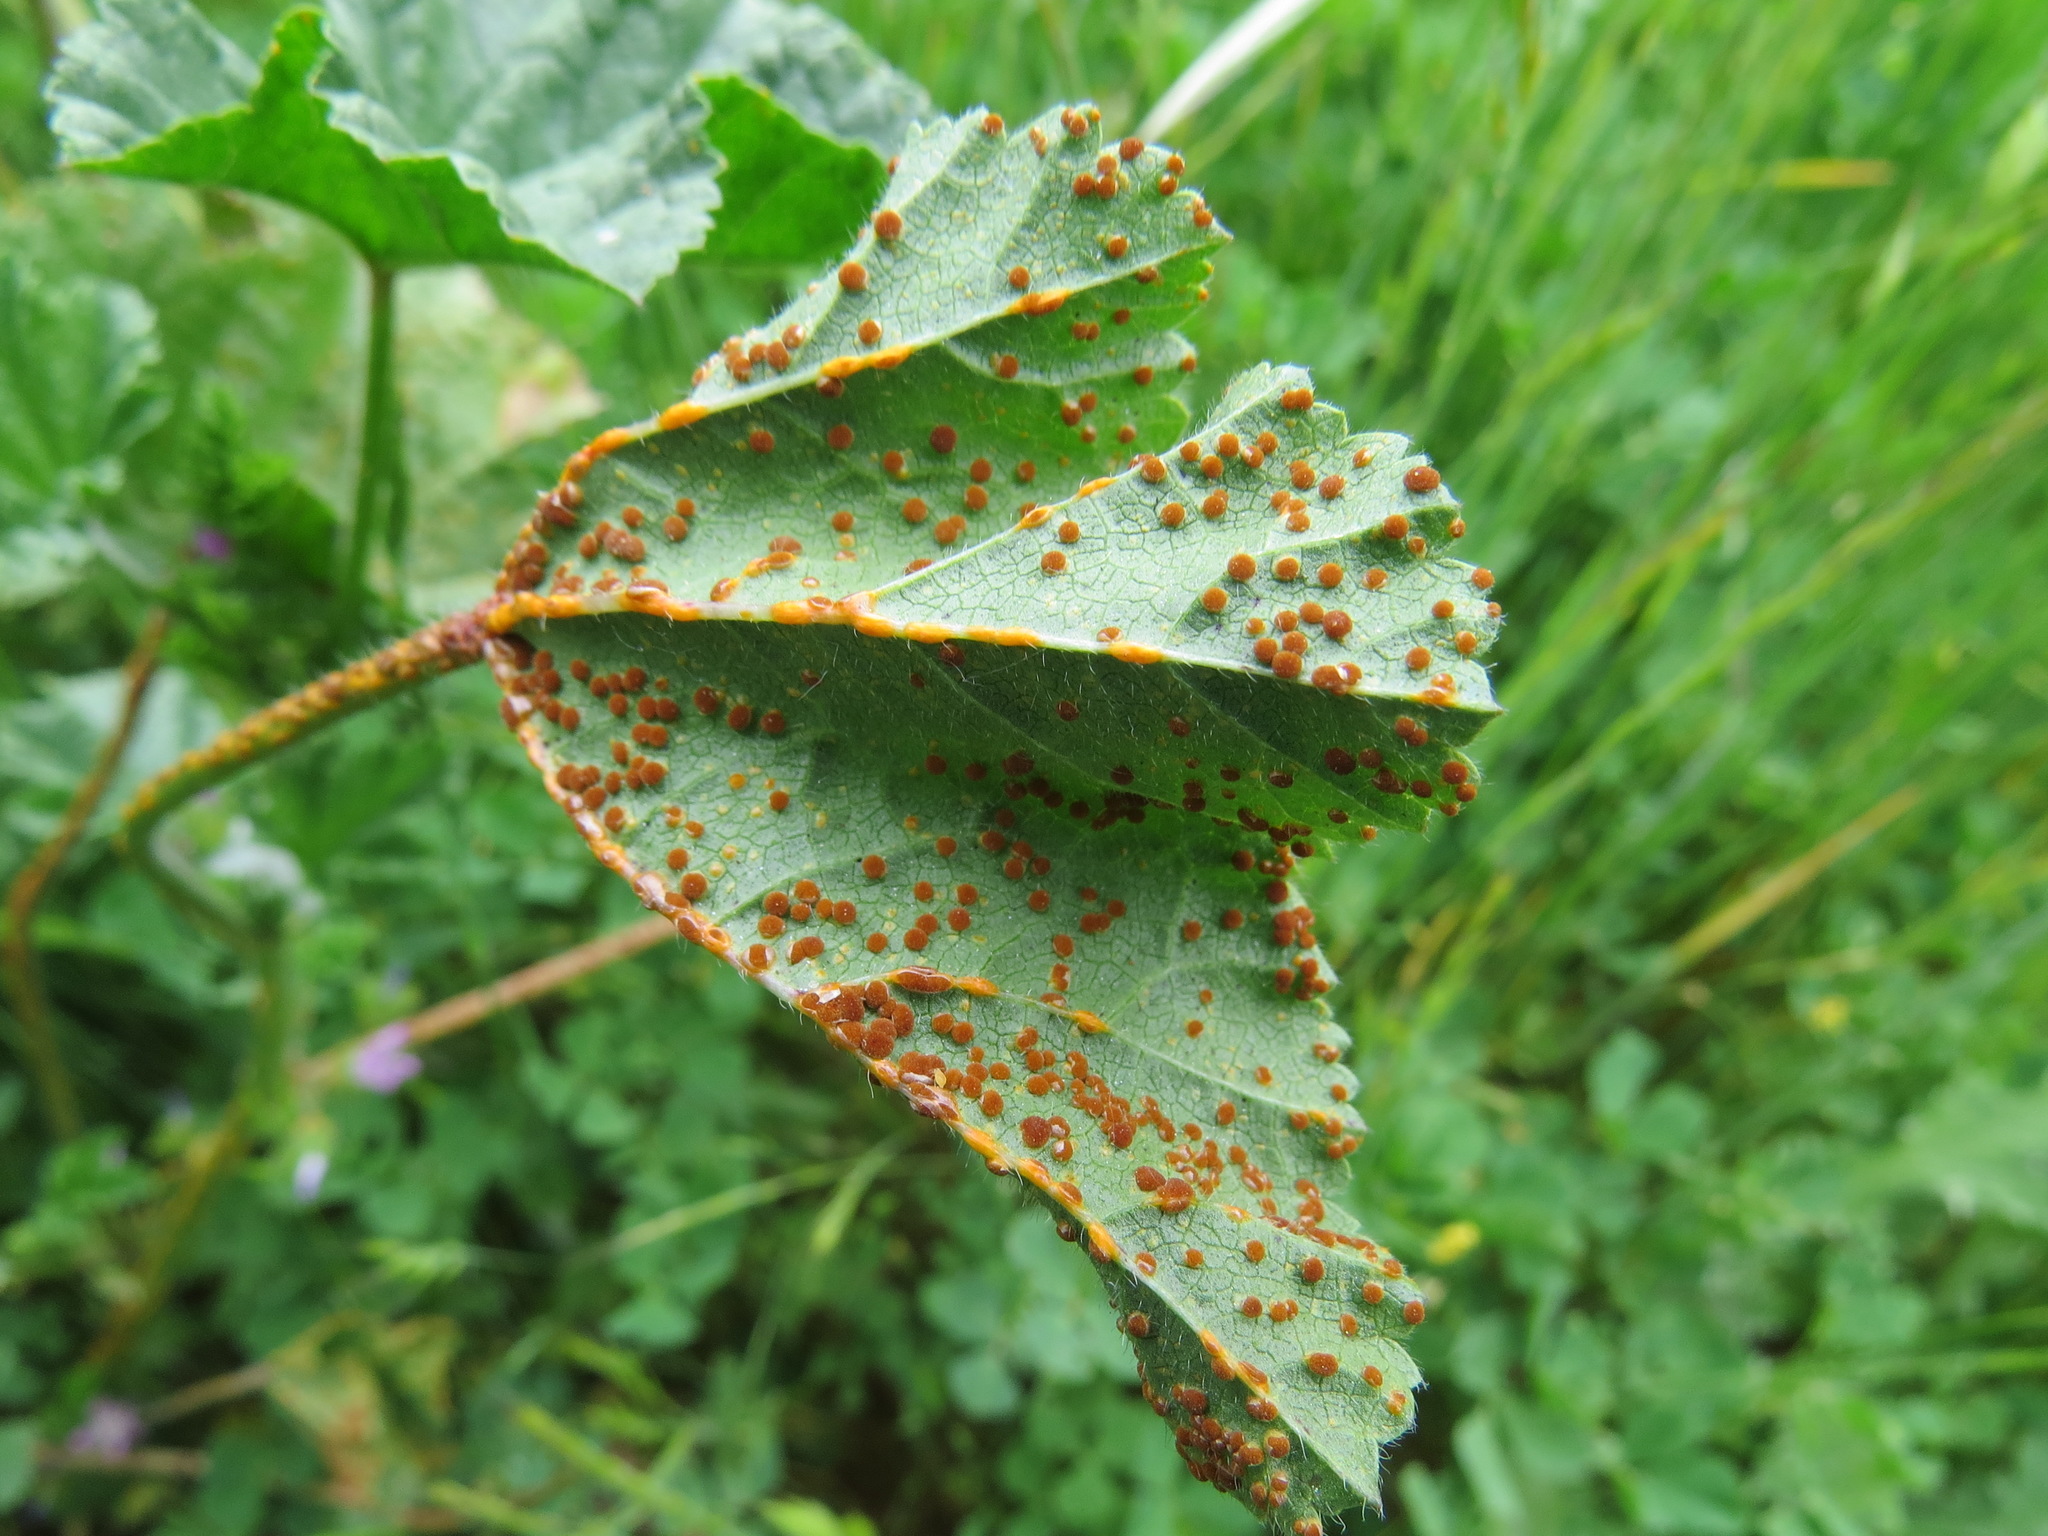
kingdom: Fungi
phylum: Basidiomycota
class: Pucciniomycetes
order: Pucciniales
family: Pucciniaceae
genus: Puccinia
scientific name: Puccinia malvacearum
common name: Hollyhock rust
